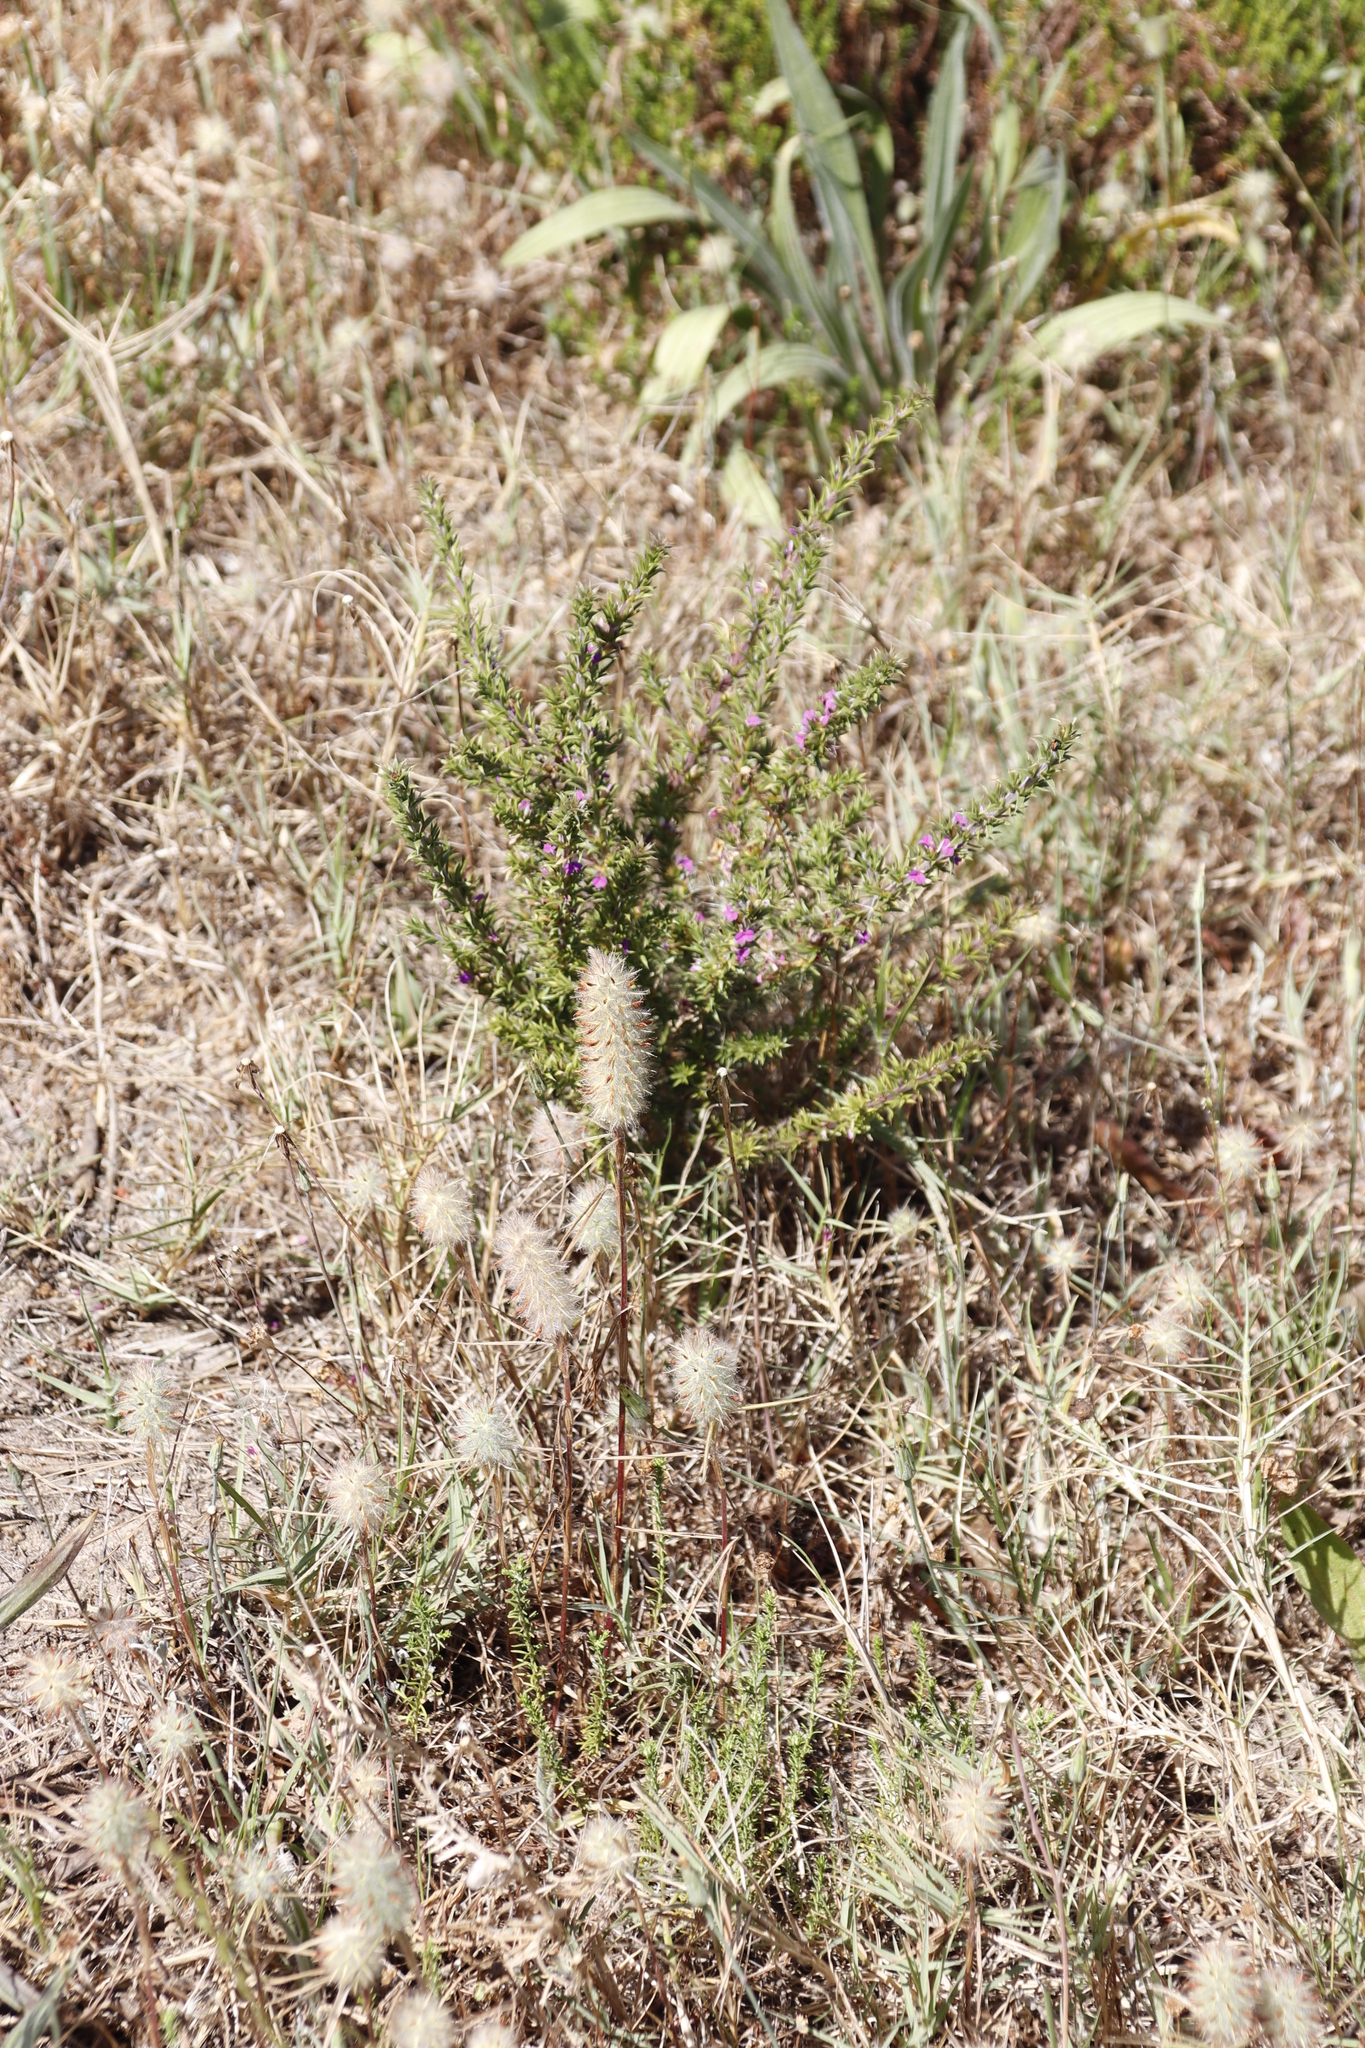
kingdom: Plantae
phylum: Tracheophyta
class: Magnoliopsida
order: Fabales
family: Fabaceae
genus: Trifolium
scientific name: Trifolium angustifolium
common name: Narrow clover
